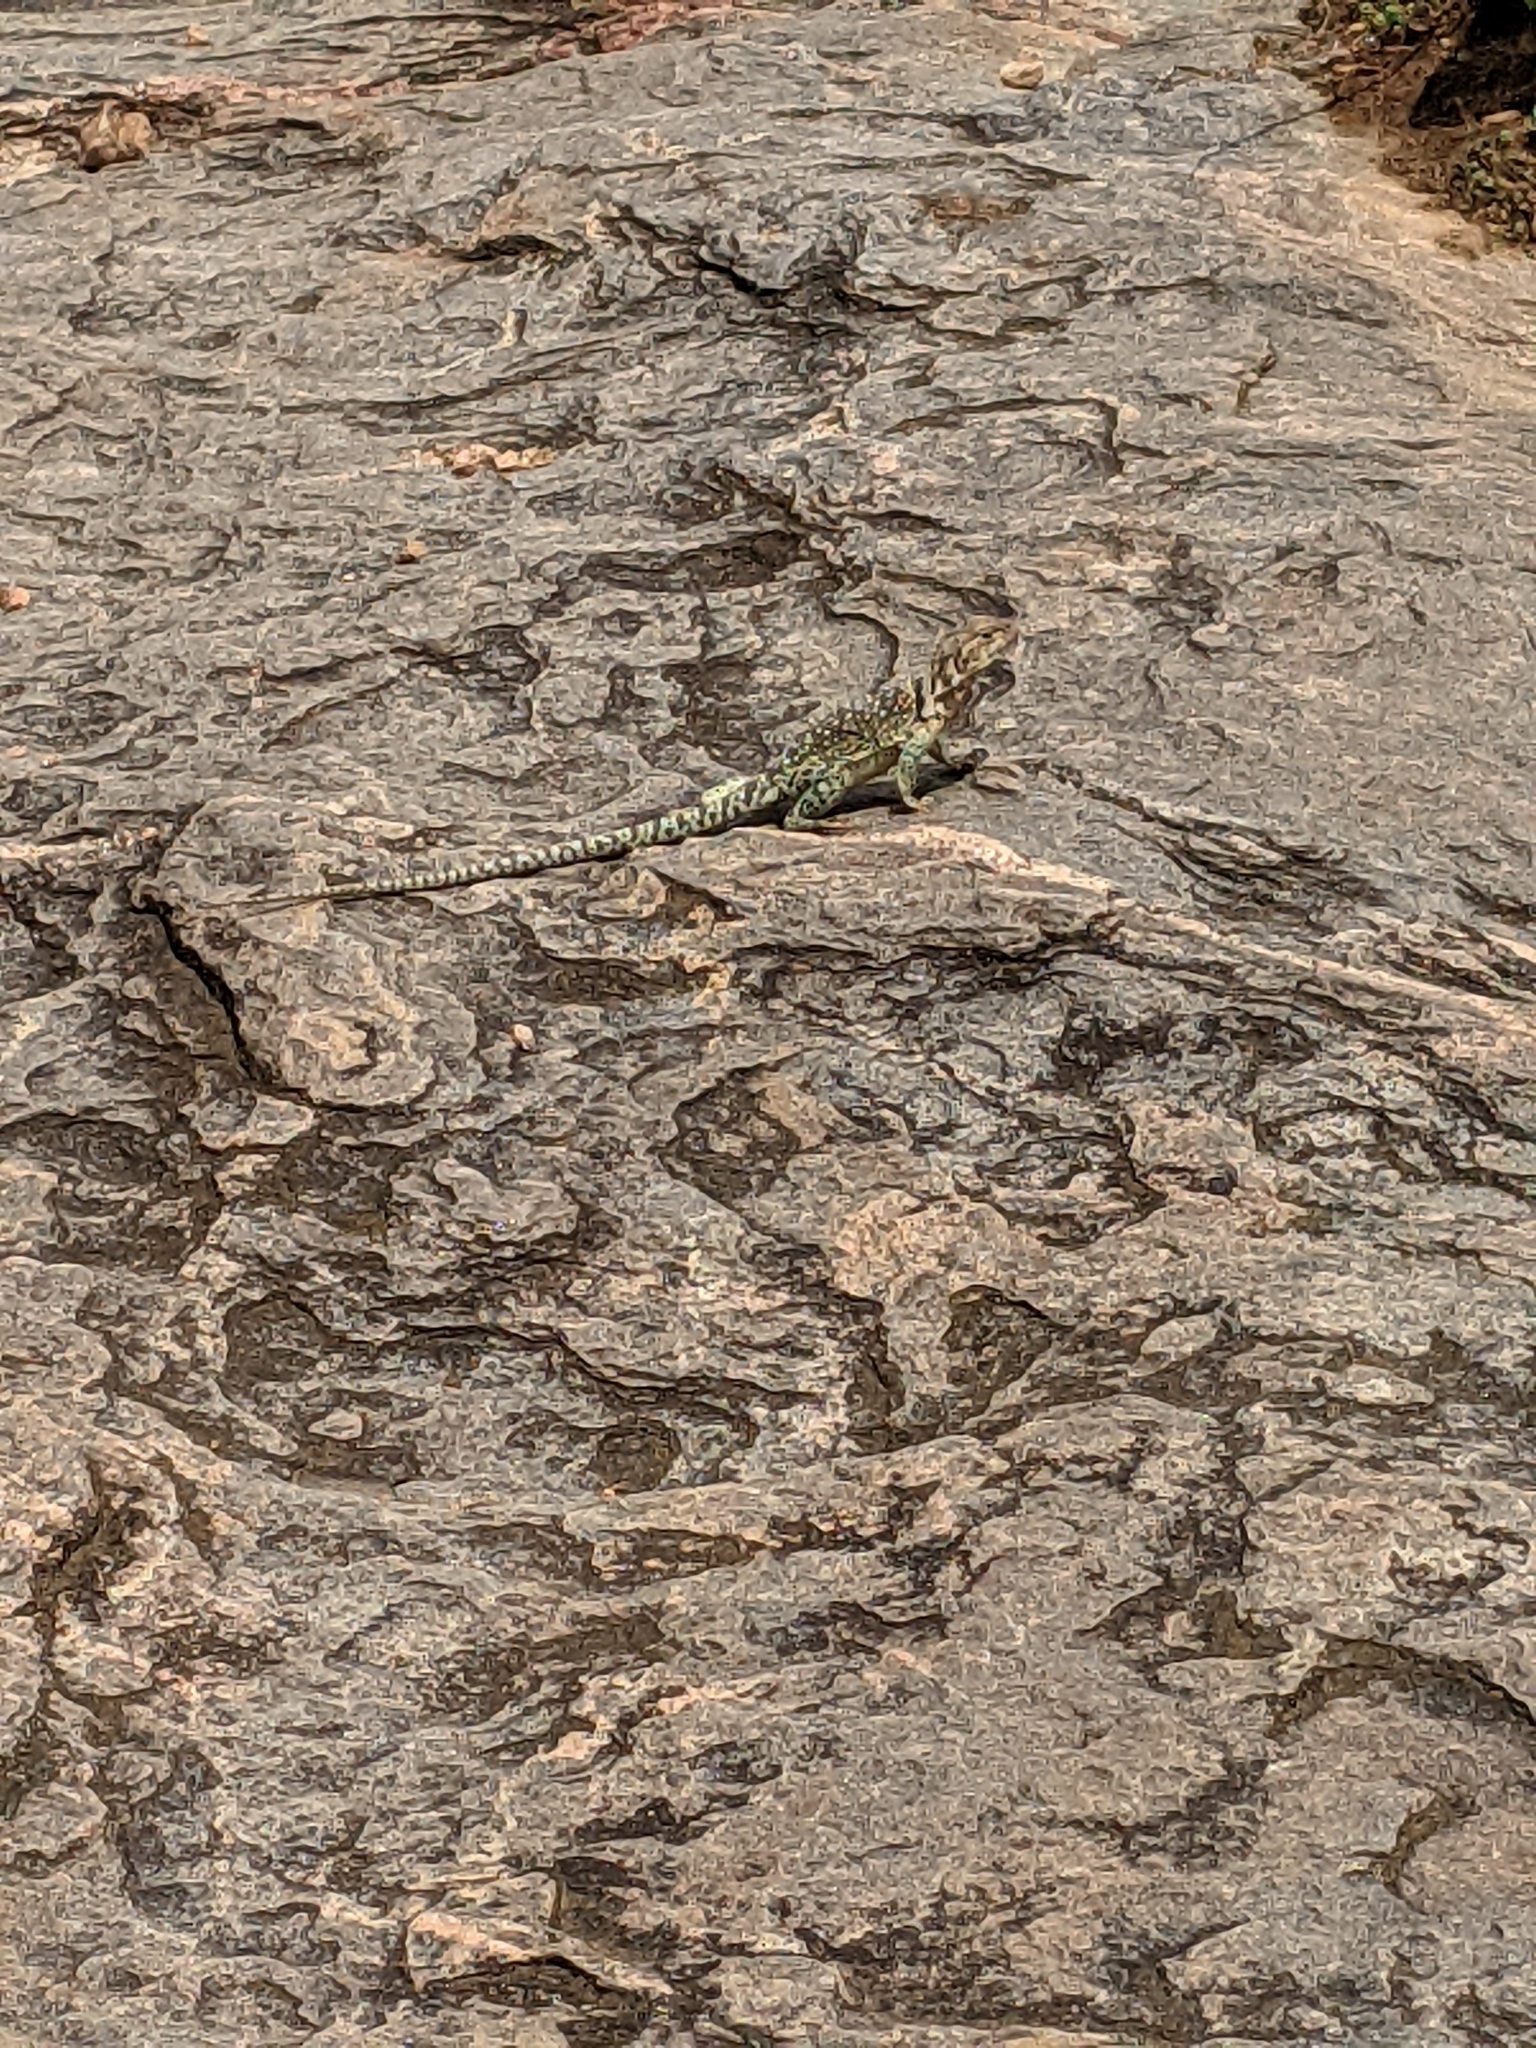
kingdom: Animalia
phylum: Chordata
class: Squamata
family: Crotaphytidae
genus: Crotaphytus
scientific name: Crotaphytus collaris
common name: Collared lizard
